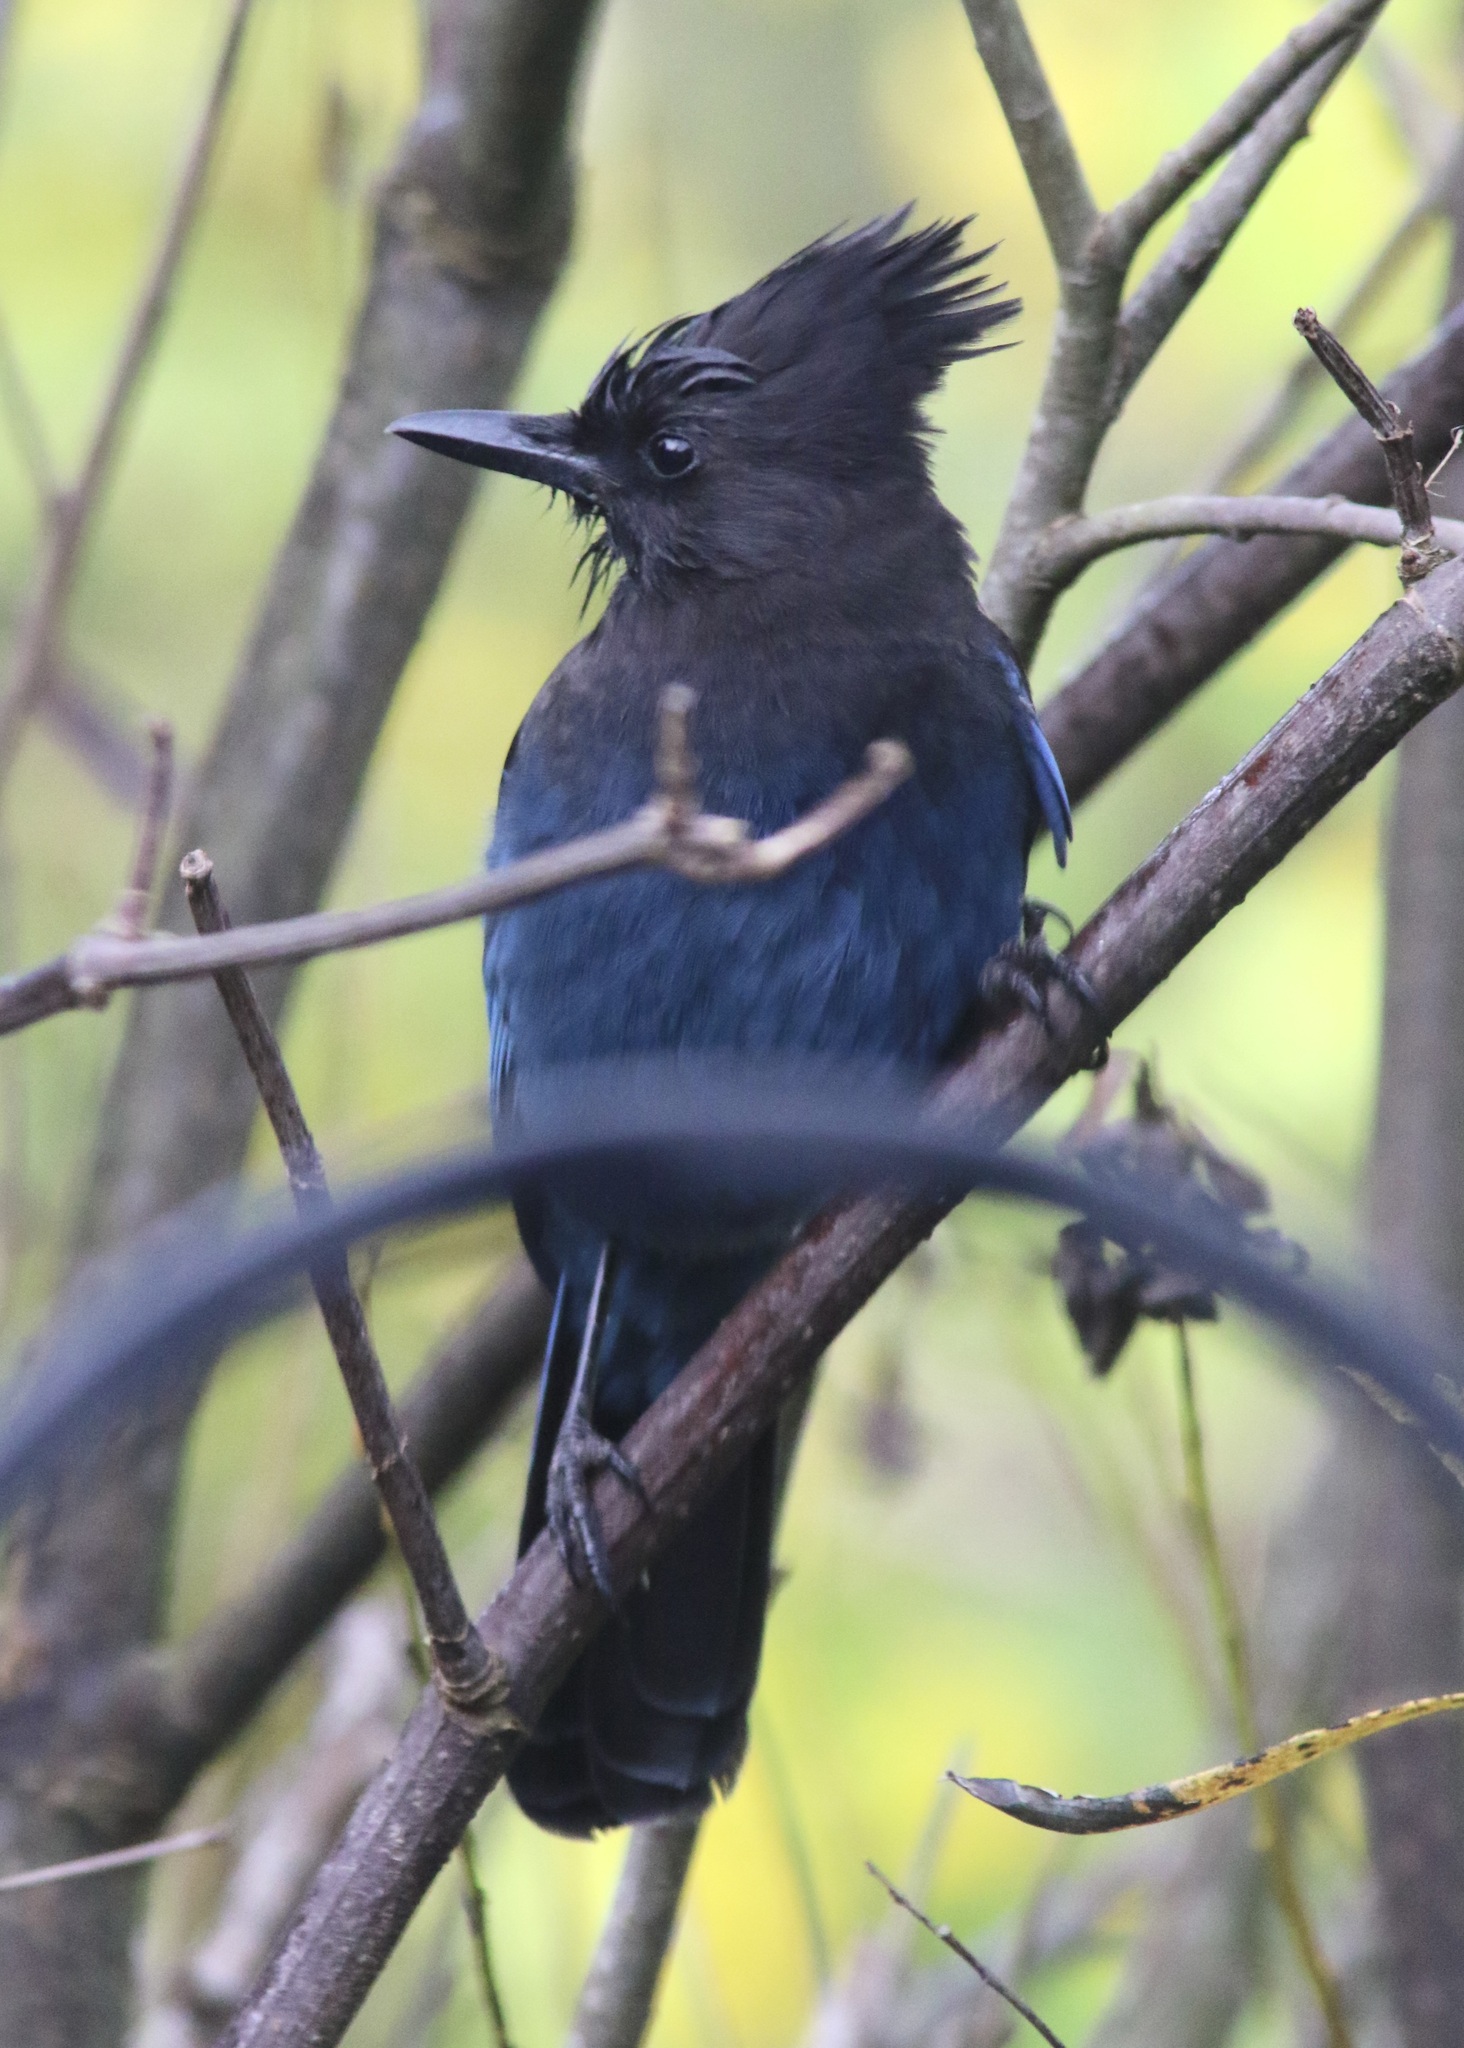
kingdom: Animalia
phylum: Chordata
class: Aves
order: Passeriformes
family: Corvidae
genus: Cyanocitta
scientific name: Cyanocitta stelleri
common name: Steller's jay
